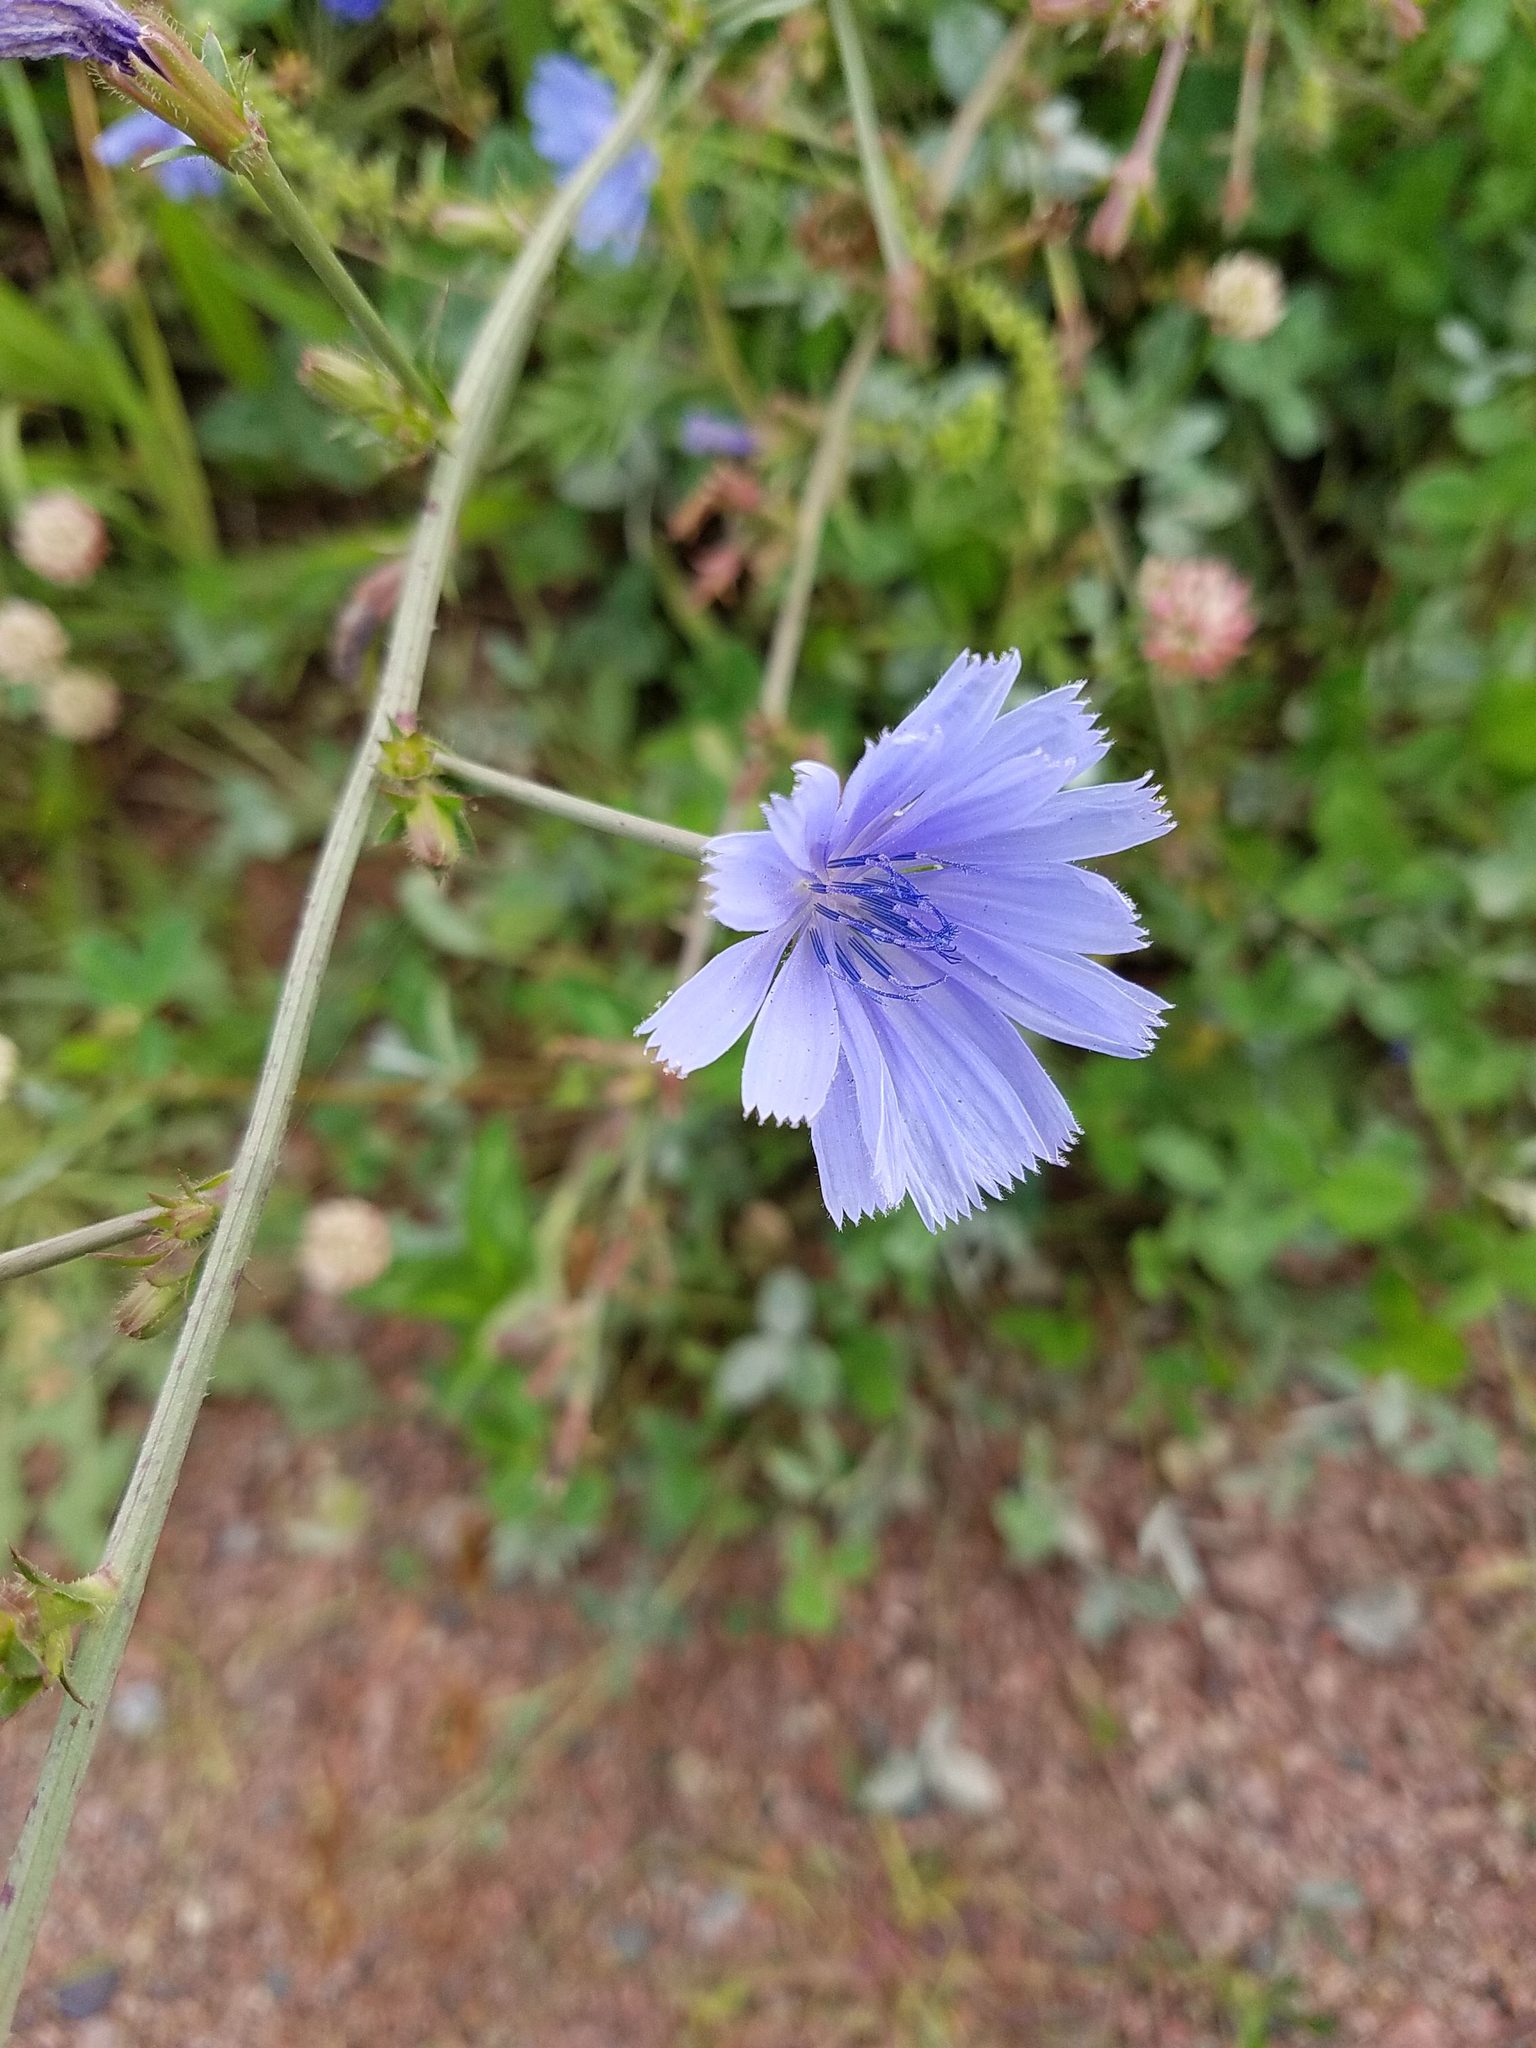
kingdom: Plantae
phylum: Tracheophyta
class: Magnoliopsida
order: Asterales
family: Asteraceae
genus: Cichorium
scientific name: Cichorium intybus
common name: Chicory
